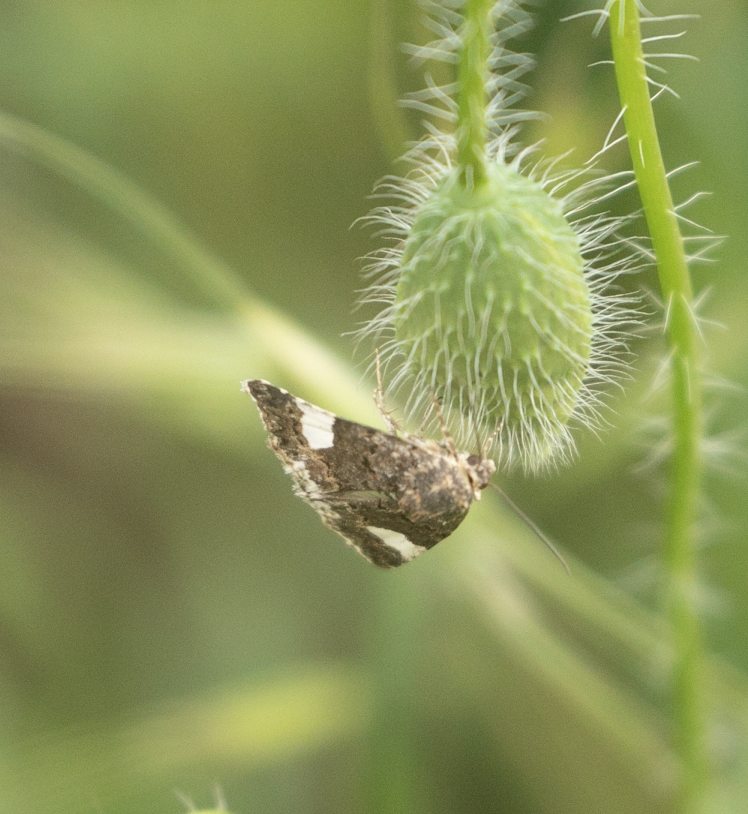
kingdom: Animalia
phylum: Arthropoda
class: Insecta
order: Lepidoptera
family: Erebidae
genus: Tyta
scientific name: Tyta luctuosa
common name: Four-spotted
